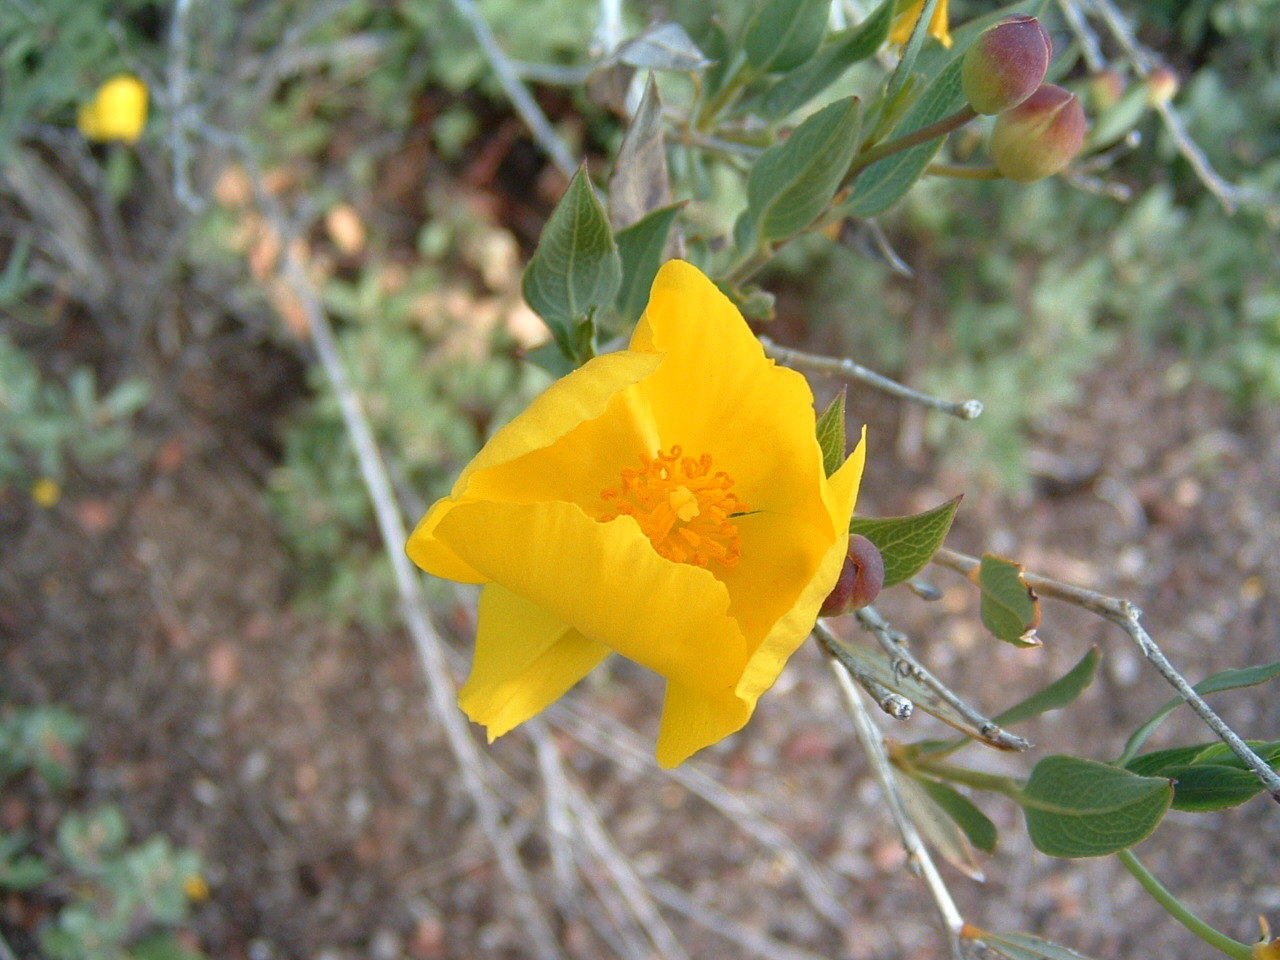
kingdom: Plantae
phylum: Tracheophyta
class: Magnoliopsida
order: Ranunculales
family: Papaveraceae
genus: Dendromecon
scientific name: Dendromecon rigida
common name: Tree poppy
